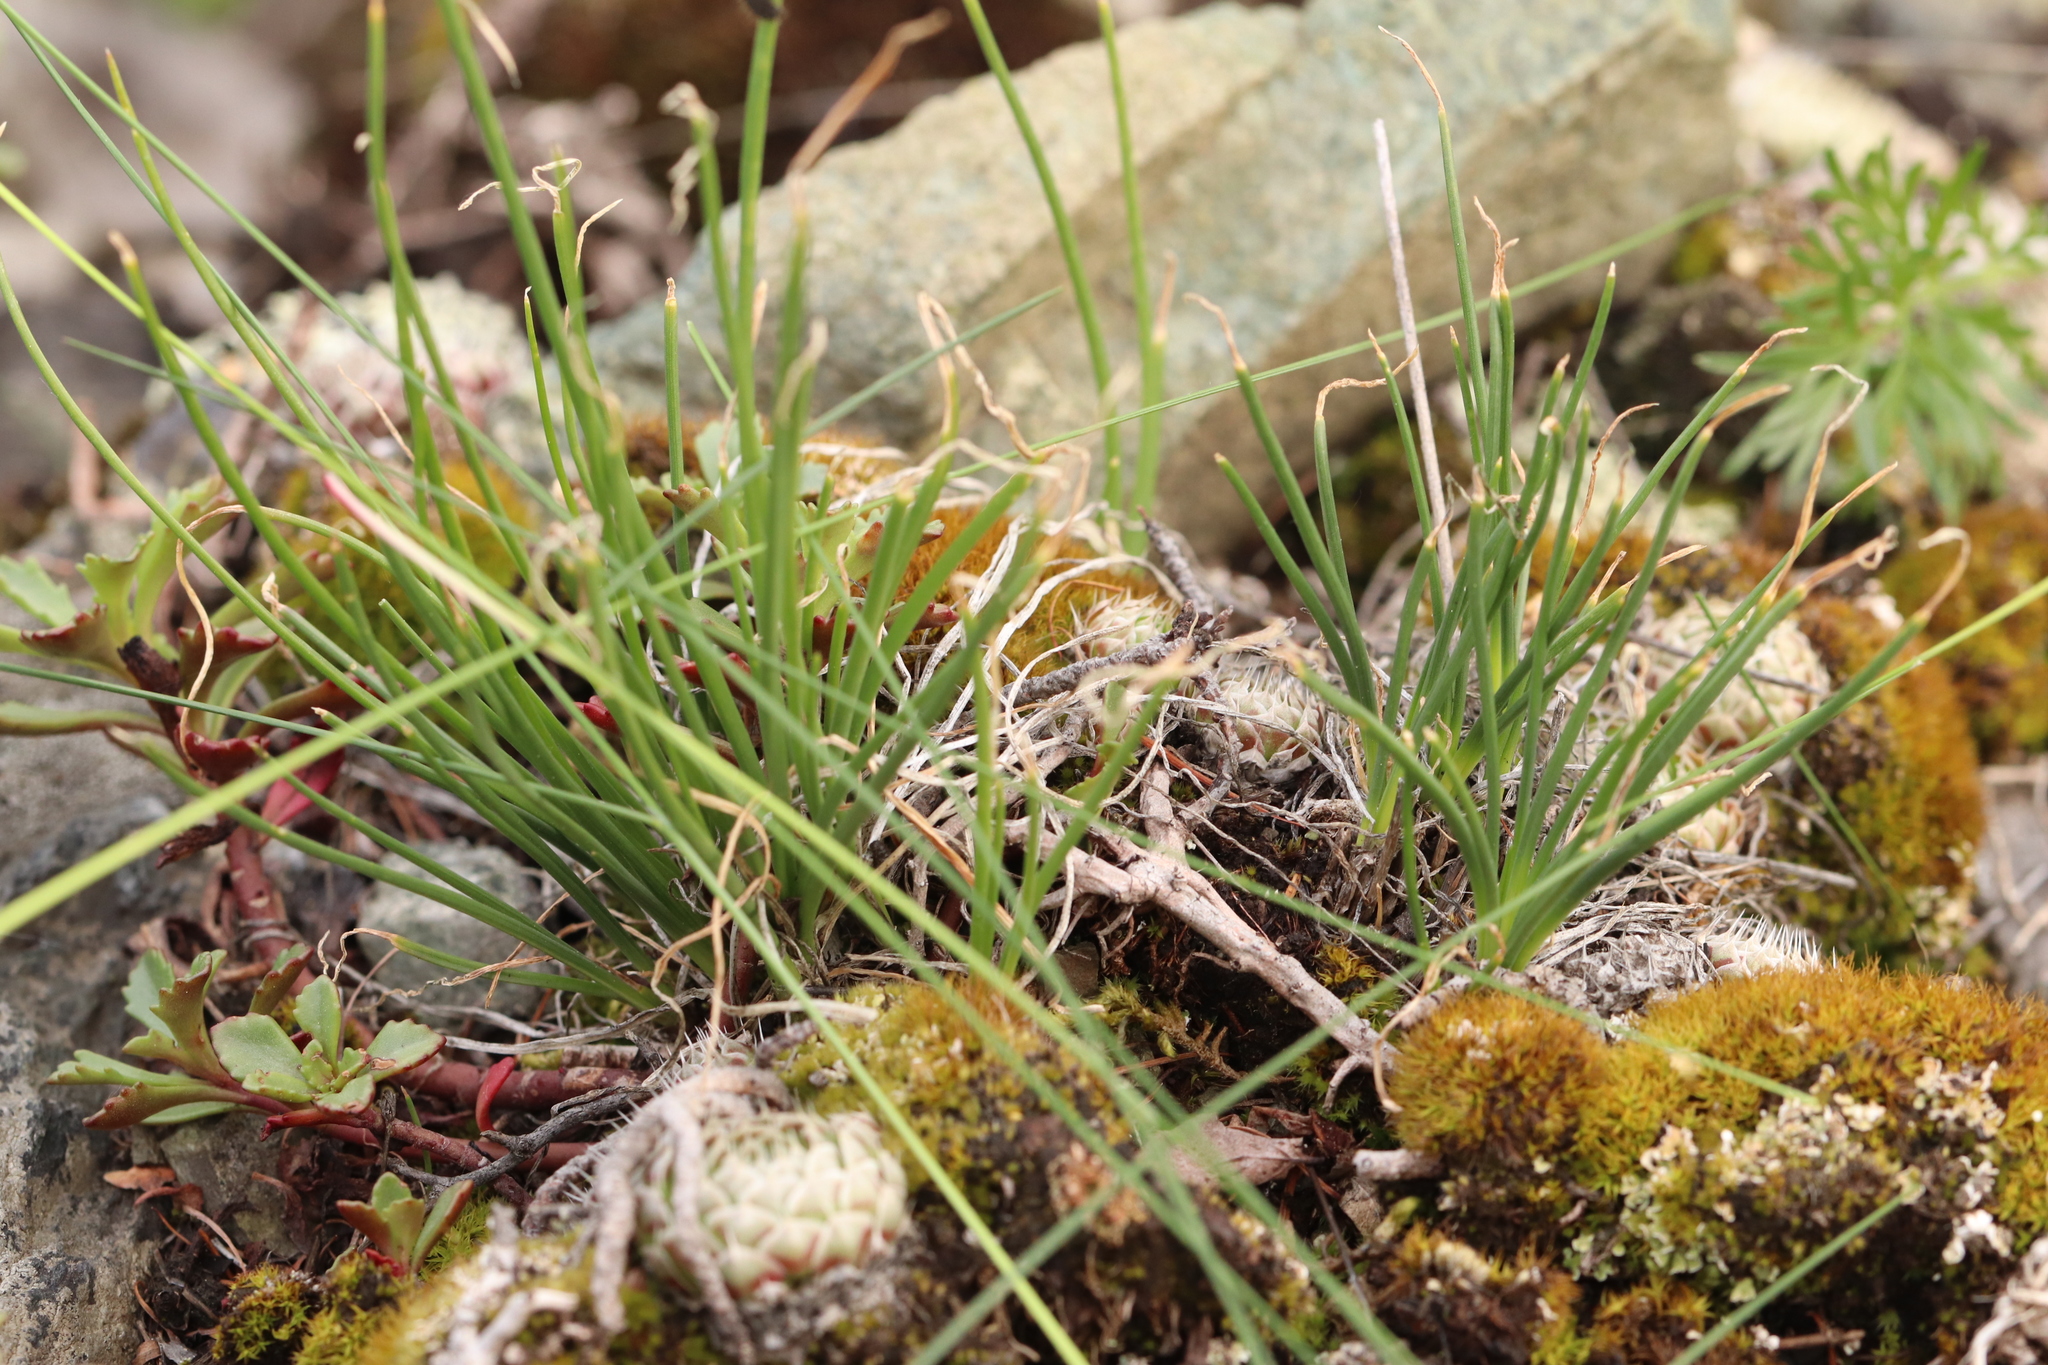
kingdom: Plantae
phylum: Tracheophyta
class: Liliopsida
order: Asparagales
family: Amaryllidaceae
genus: Allium
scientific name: Allium rubens
